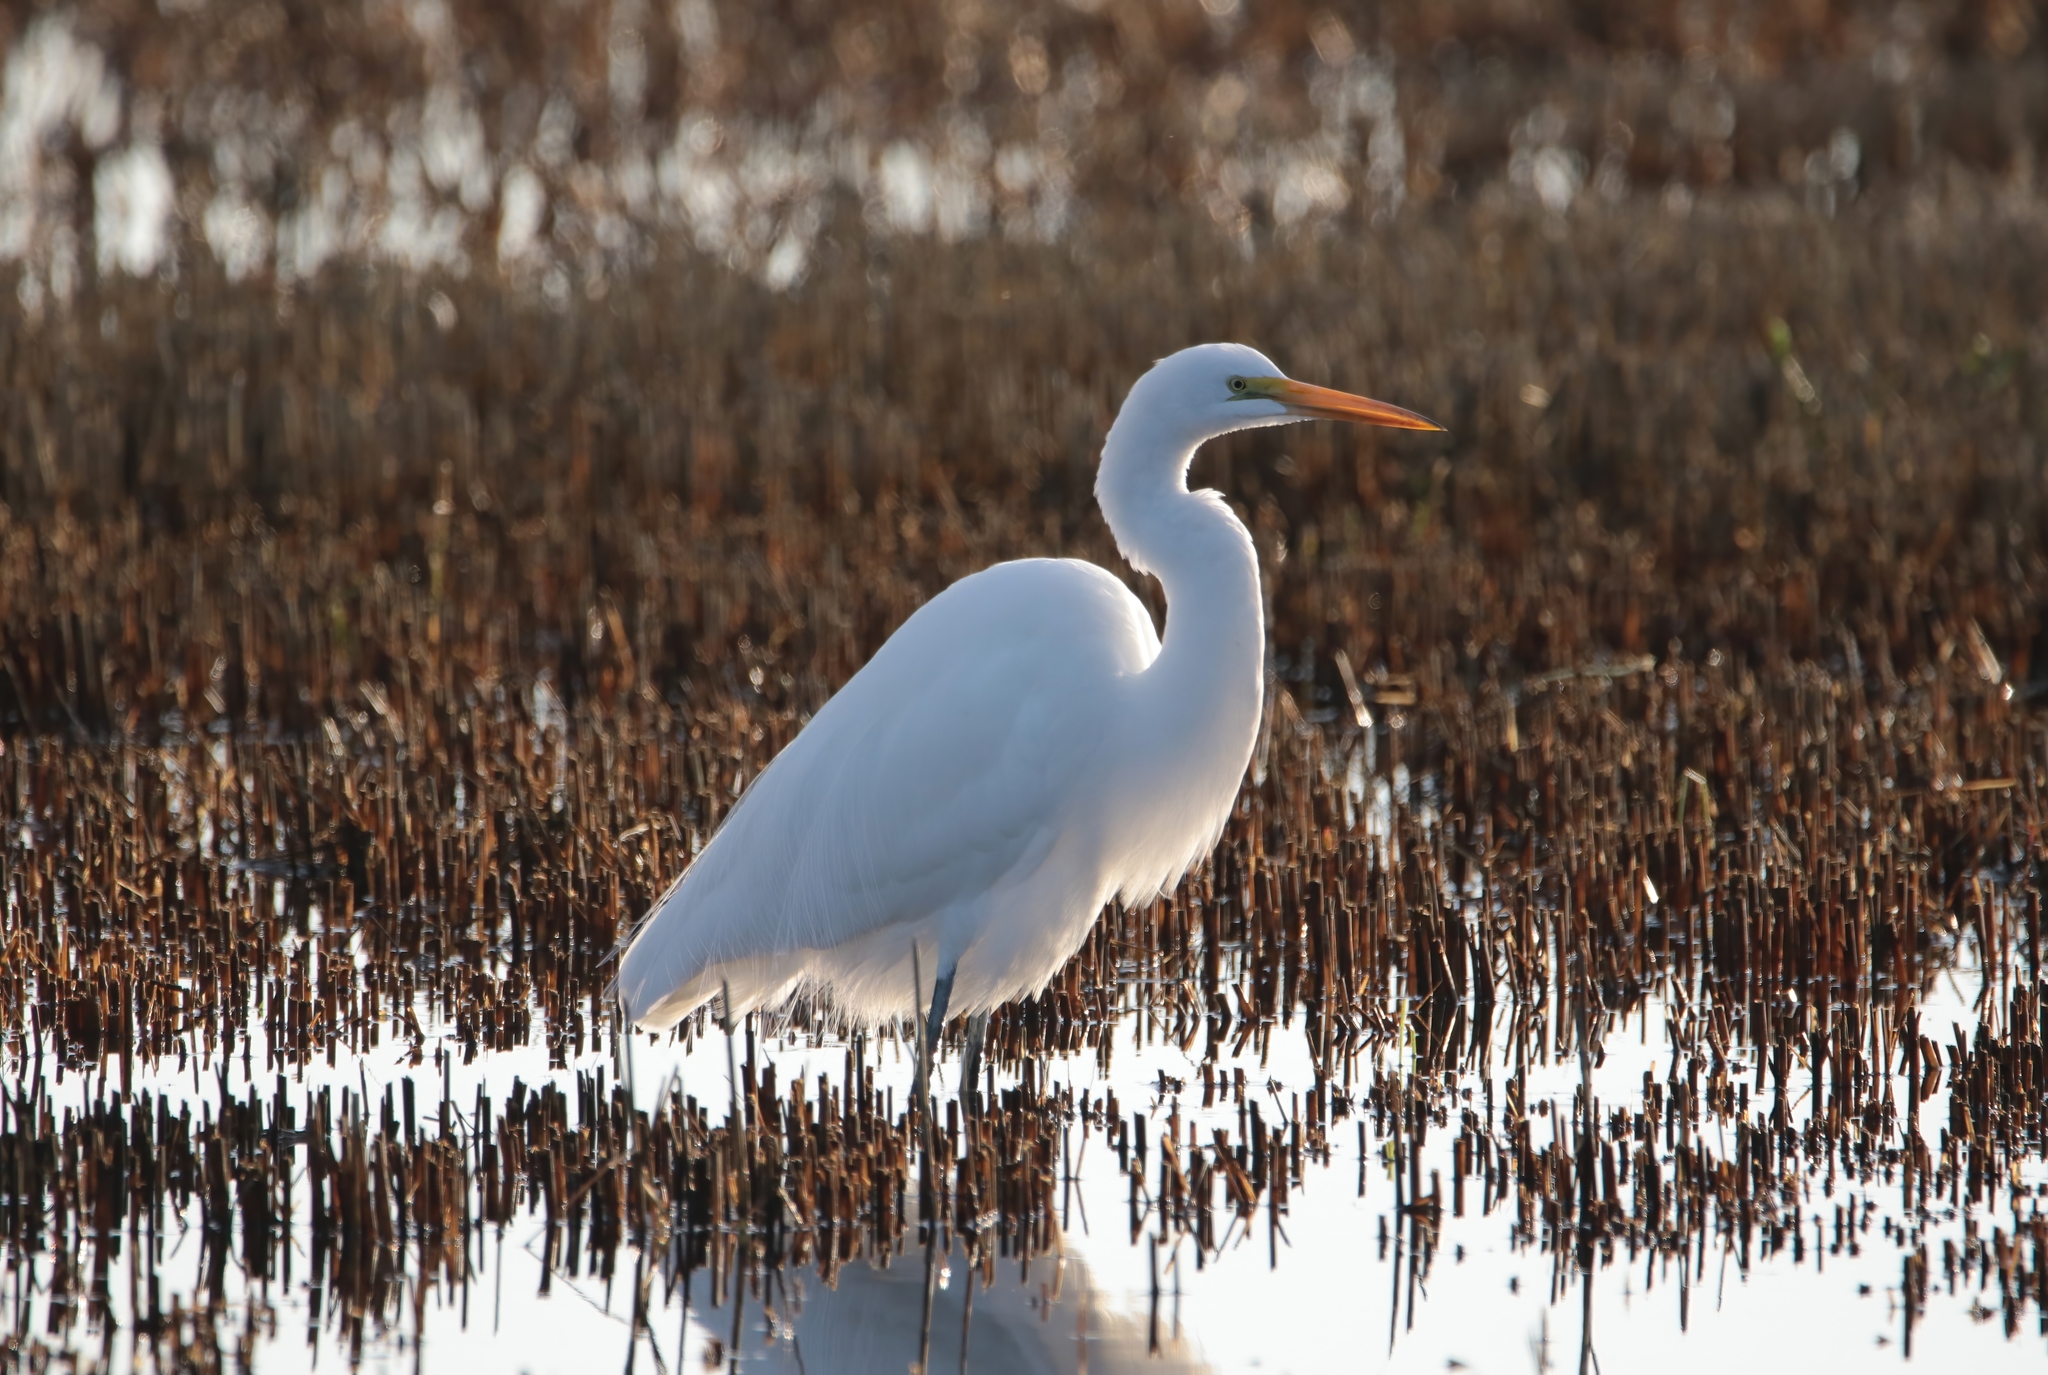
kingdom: Animalia
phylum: Chordata
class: Aves
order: Pelecaniformes
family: Ardeidae
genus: Ardea
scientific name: Ardea alba
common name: Great egret
